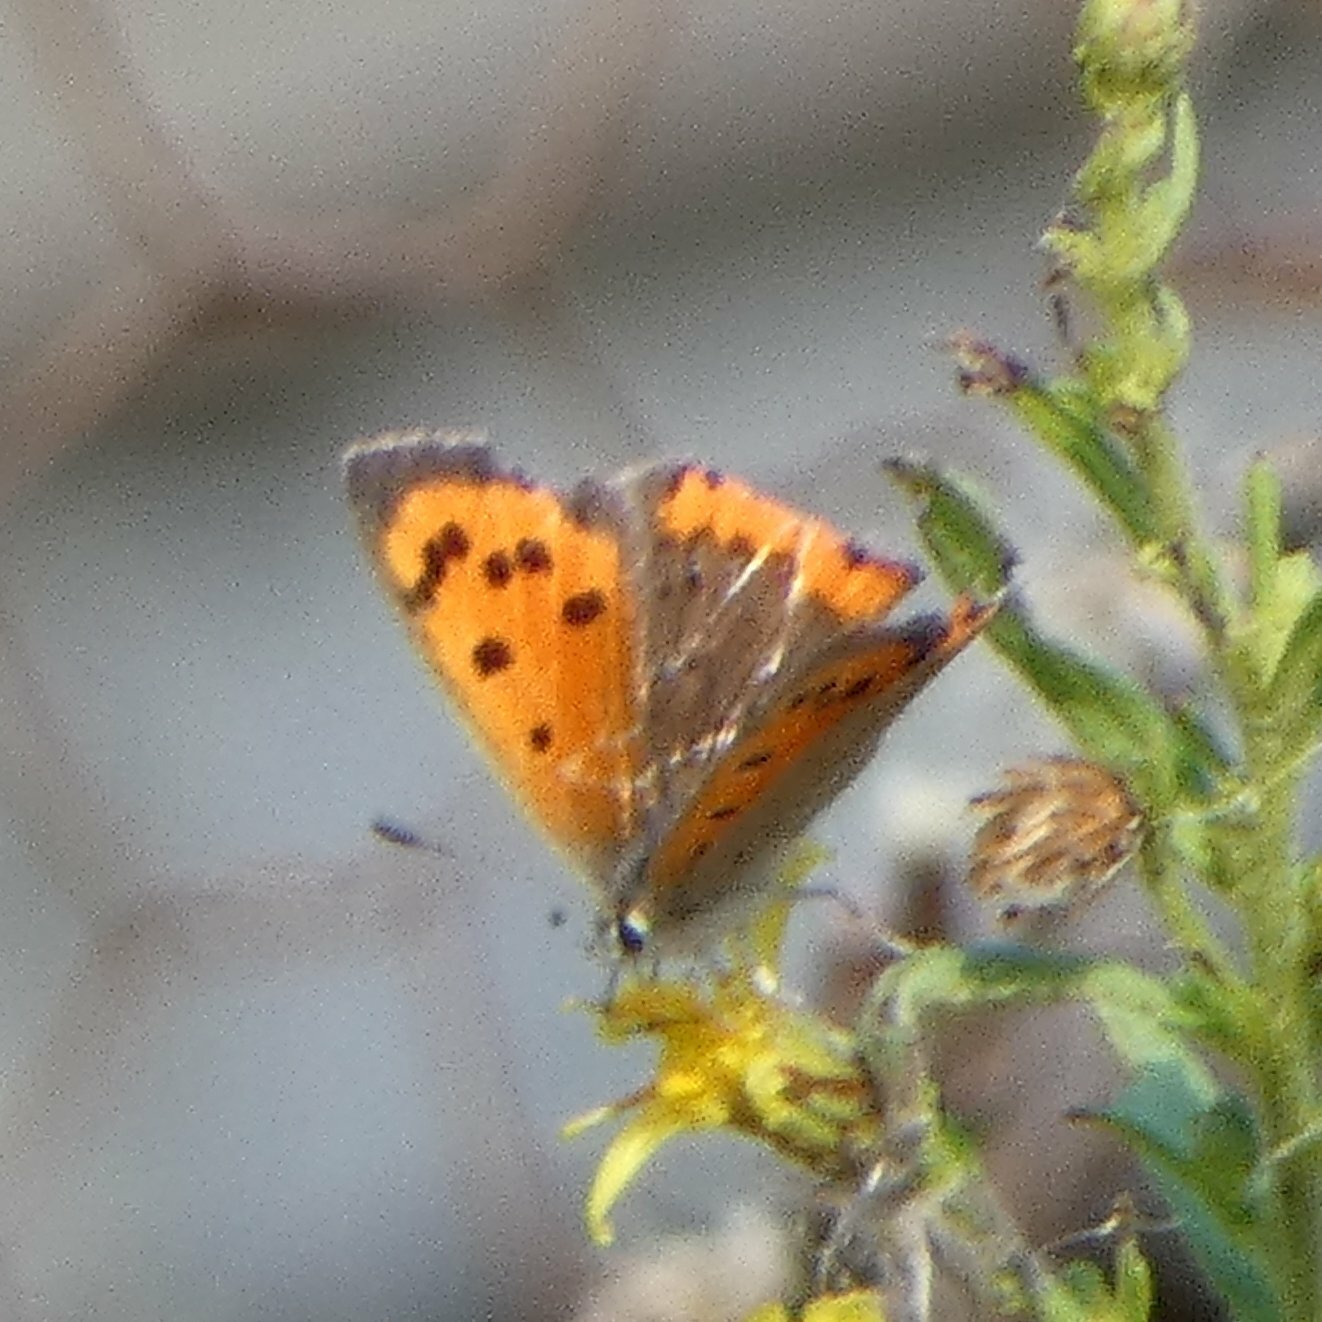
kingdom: Animalia
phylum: Arthropoda
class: Insecta
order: Lepidoptera
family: Lycaenidae
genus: Lycaena
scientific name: Lycaena phlaeas
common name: Small copper
